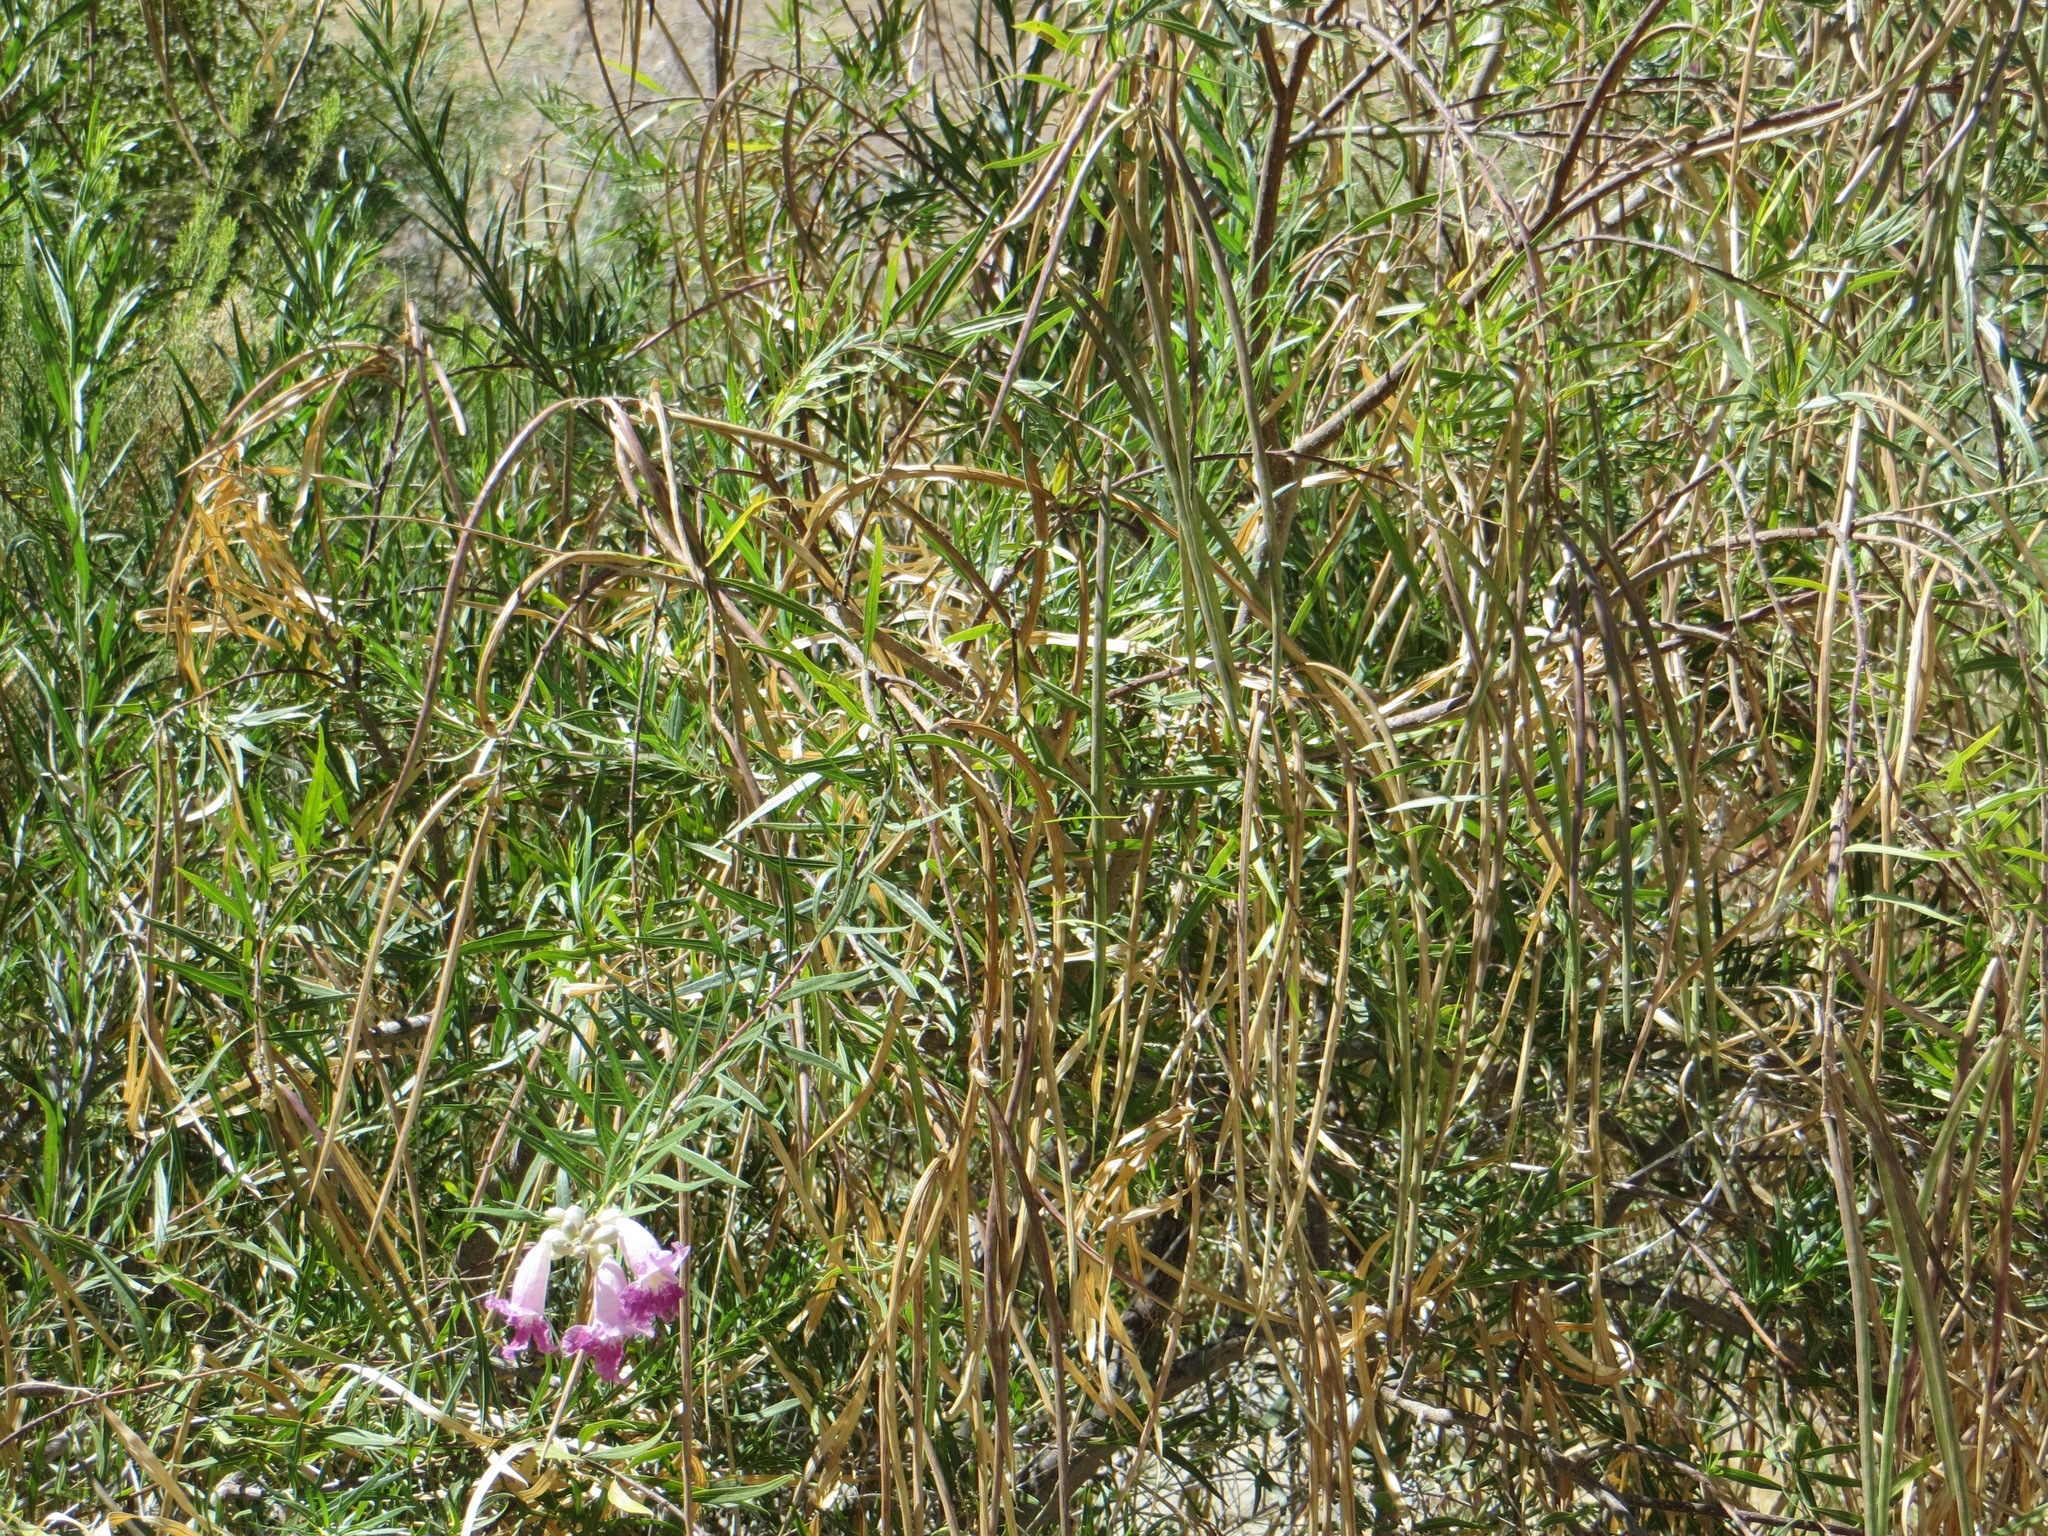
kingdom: Plantae
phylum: Tracheophyta
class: Magnoliopsida
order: Lamiales
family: Bignoniaceae
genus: Chilopsis
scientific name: Chilopsis linearis
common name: Desert-willow
